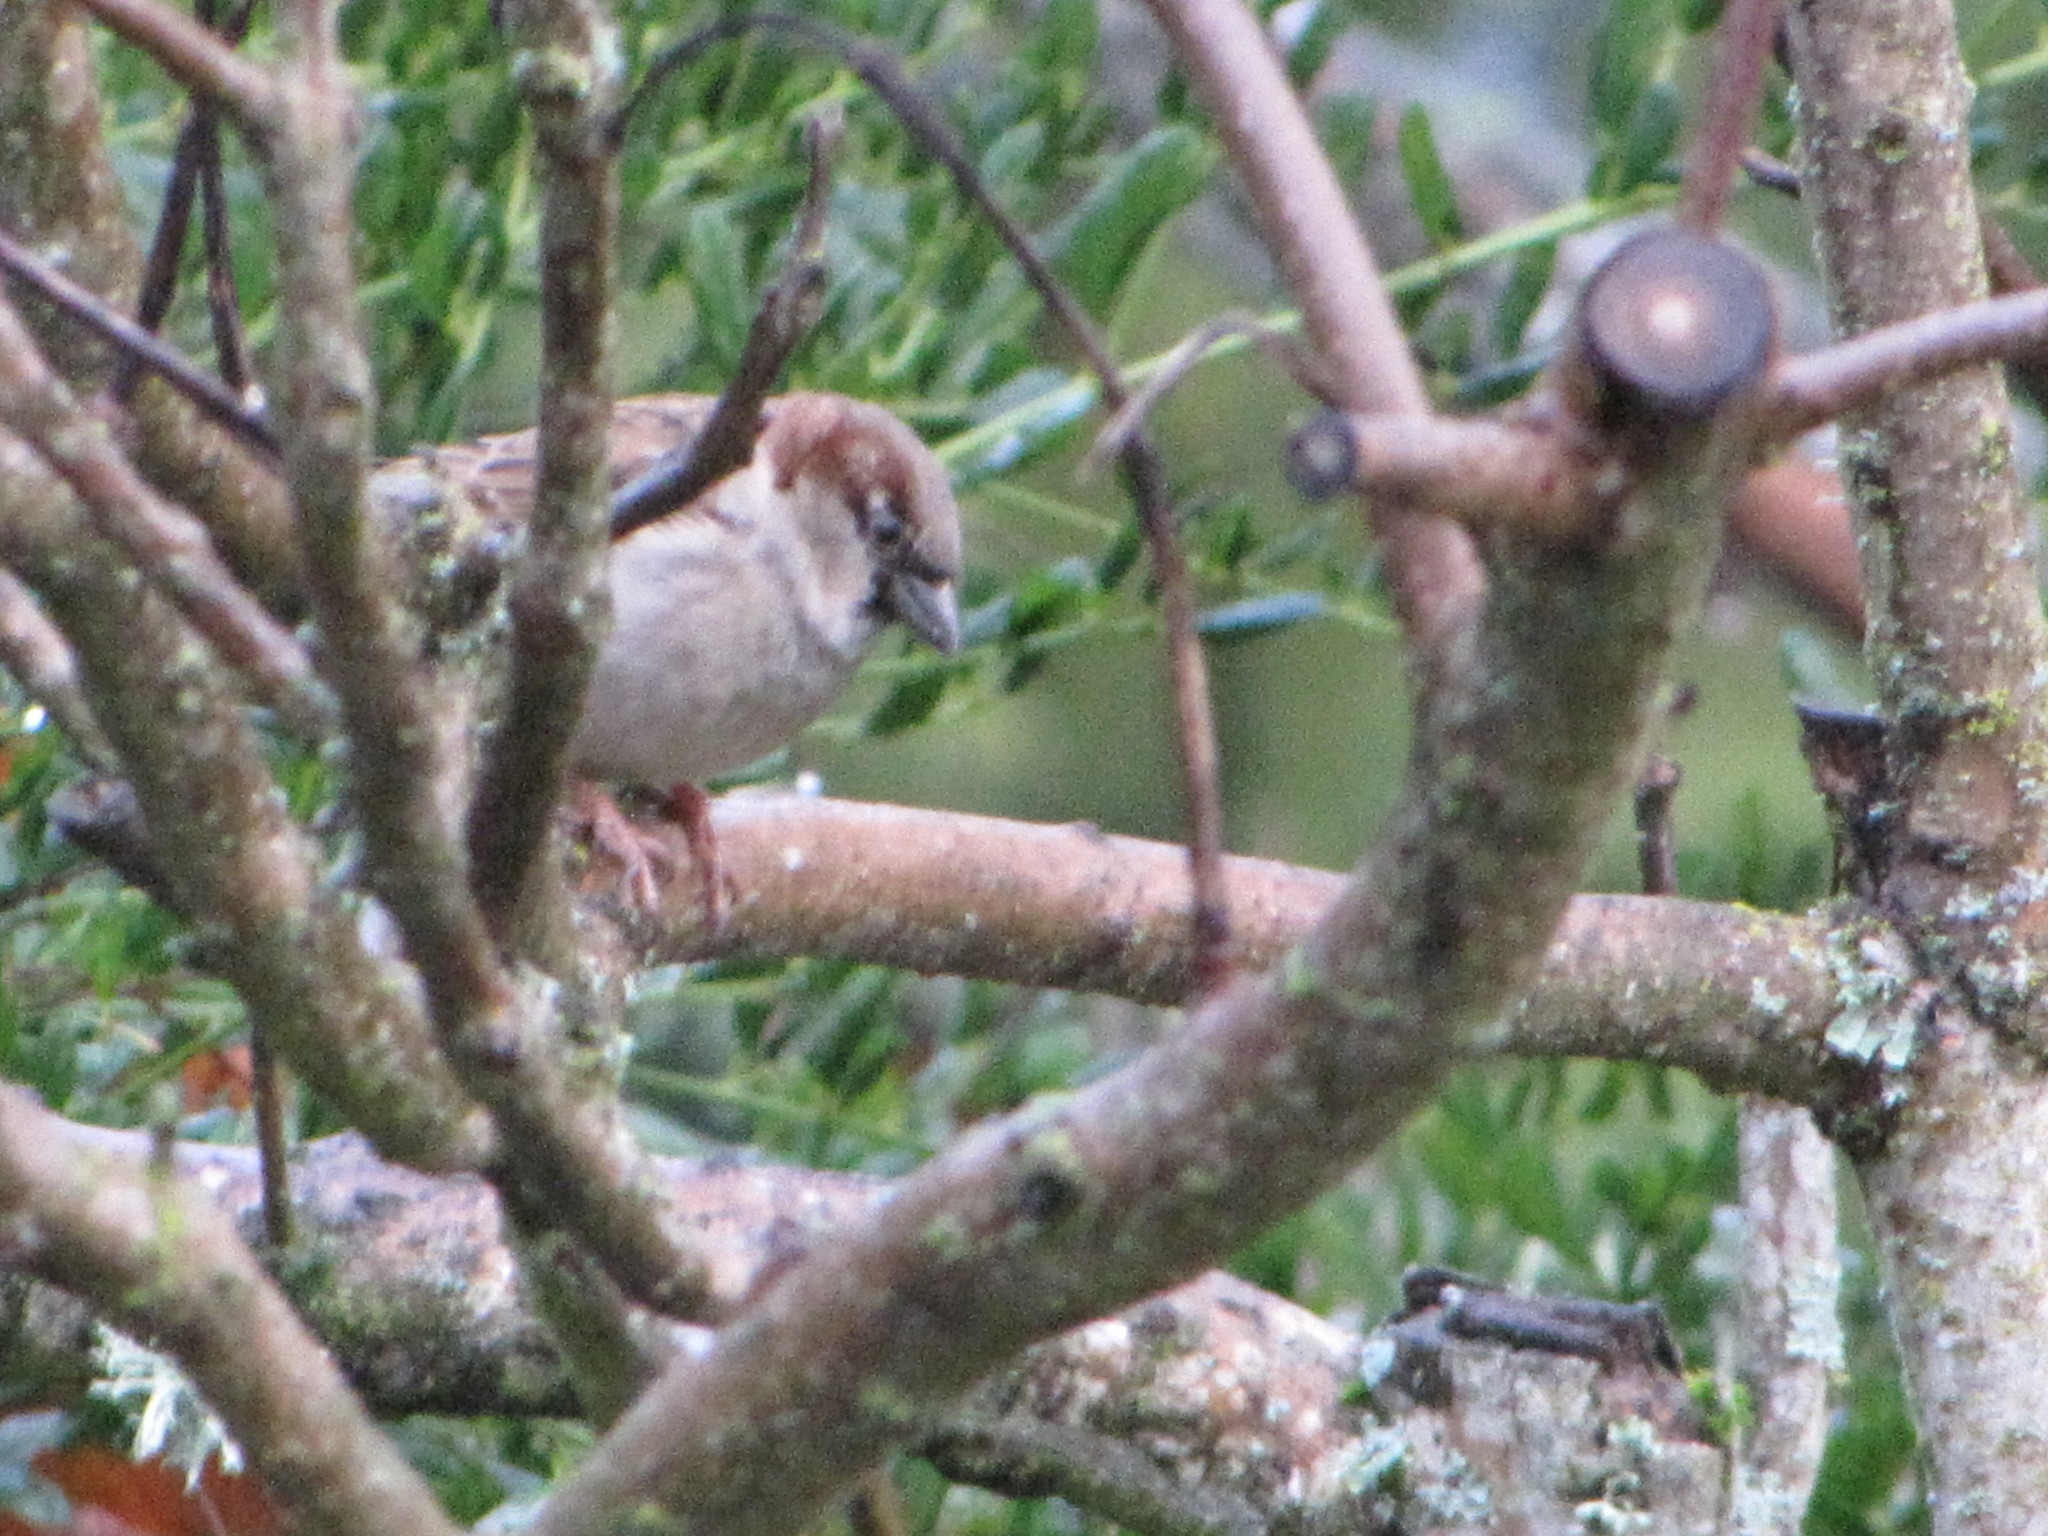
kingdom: Animalia
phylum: Chordata
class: Aves
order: Passeriformes
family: Passeridae
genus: Passer
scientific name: Passer domesticus
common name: House sparrow
